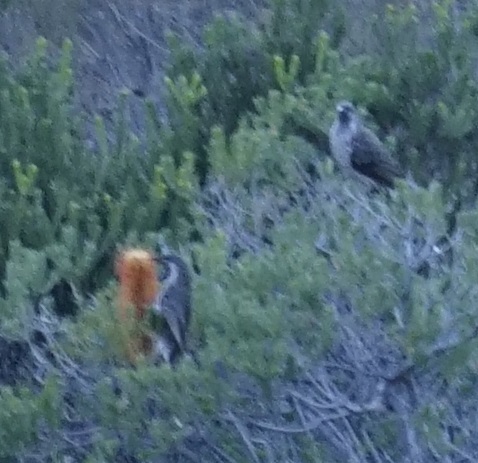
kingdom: Animalia
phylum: Chordata
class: Aves
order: Passeriformes
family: Meliphagidae
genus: Anthochaera
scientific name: Anthochaera chrysoptera
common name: Little wattlebird
